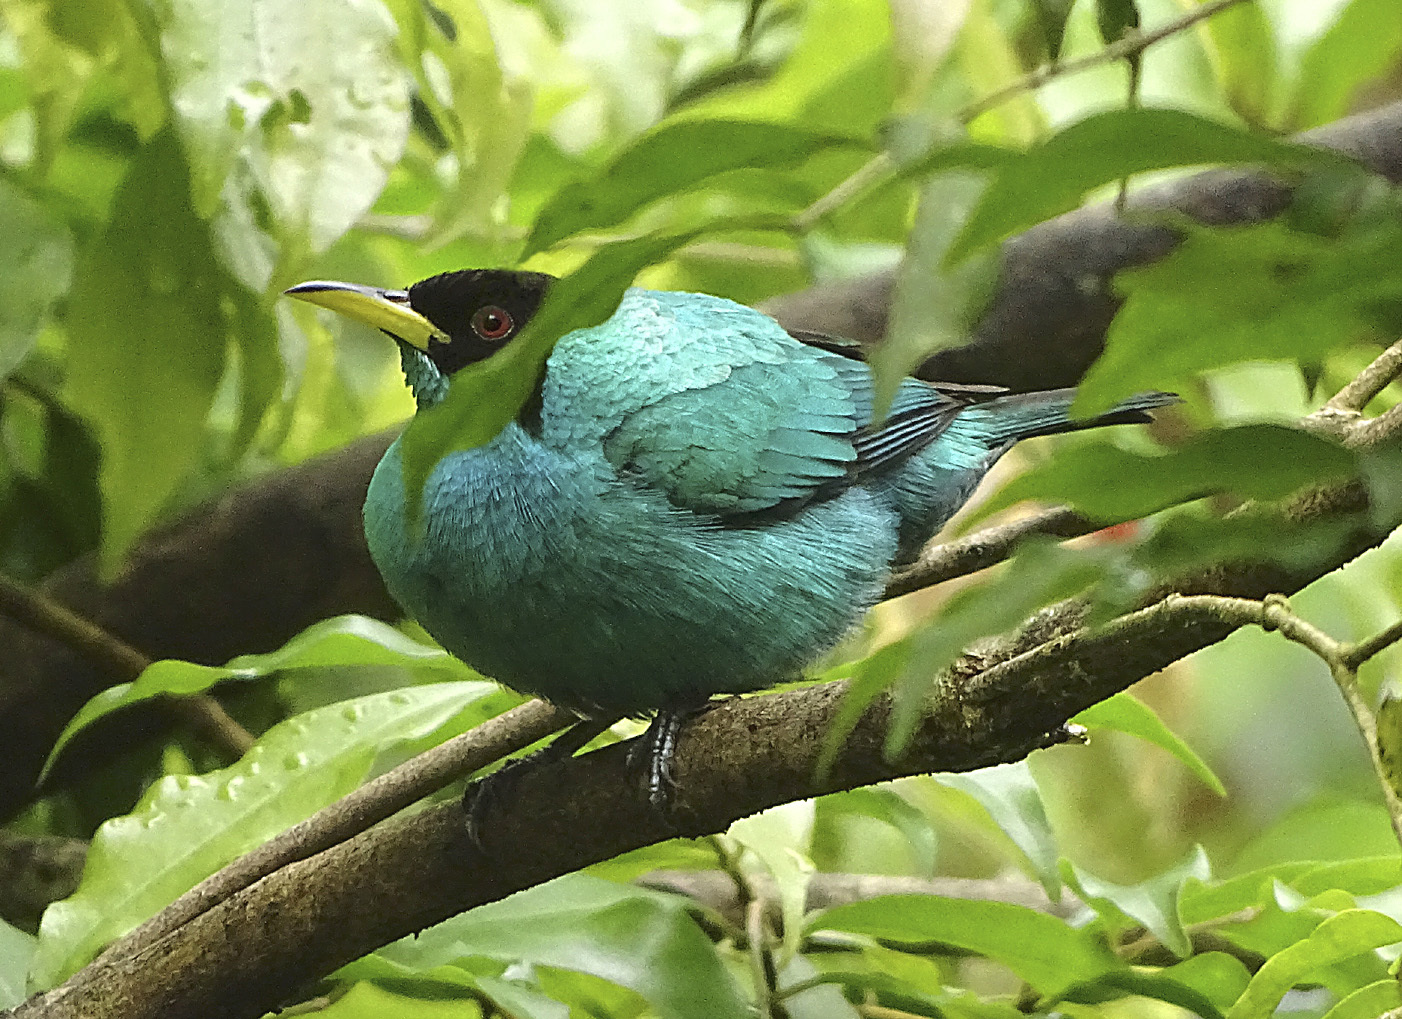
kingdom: Animalia
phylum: Chordata
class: Aves
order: Passeriformes
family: Thraupidae
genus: Chlorophanes
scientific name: Chlorophanes spiza
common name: Green honeycreeper
